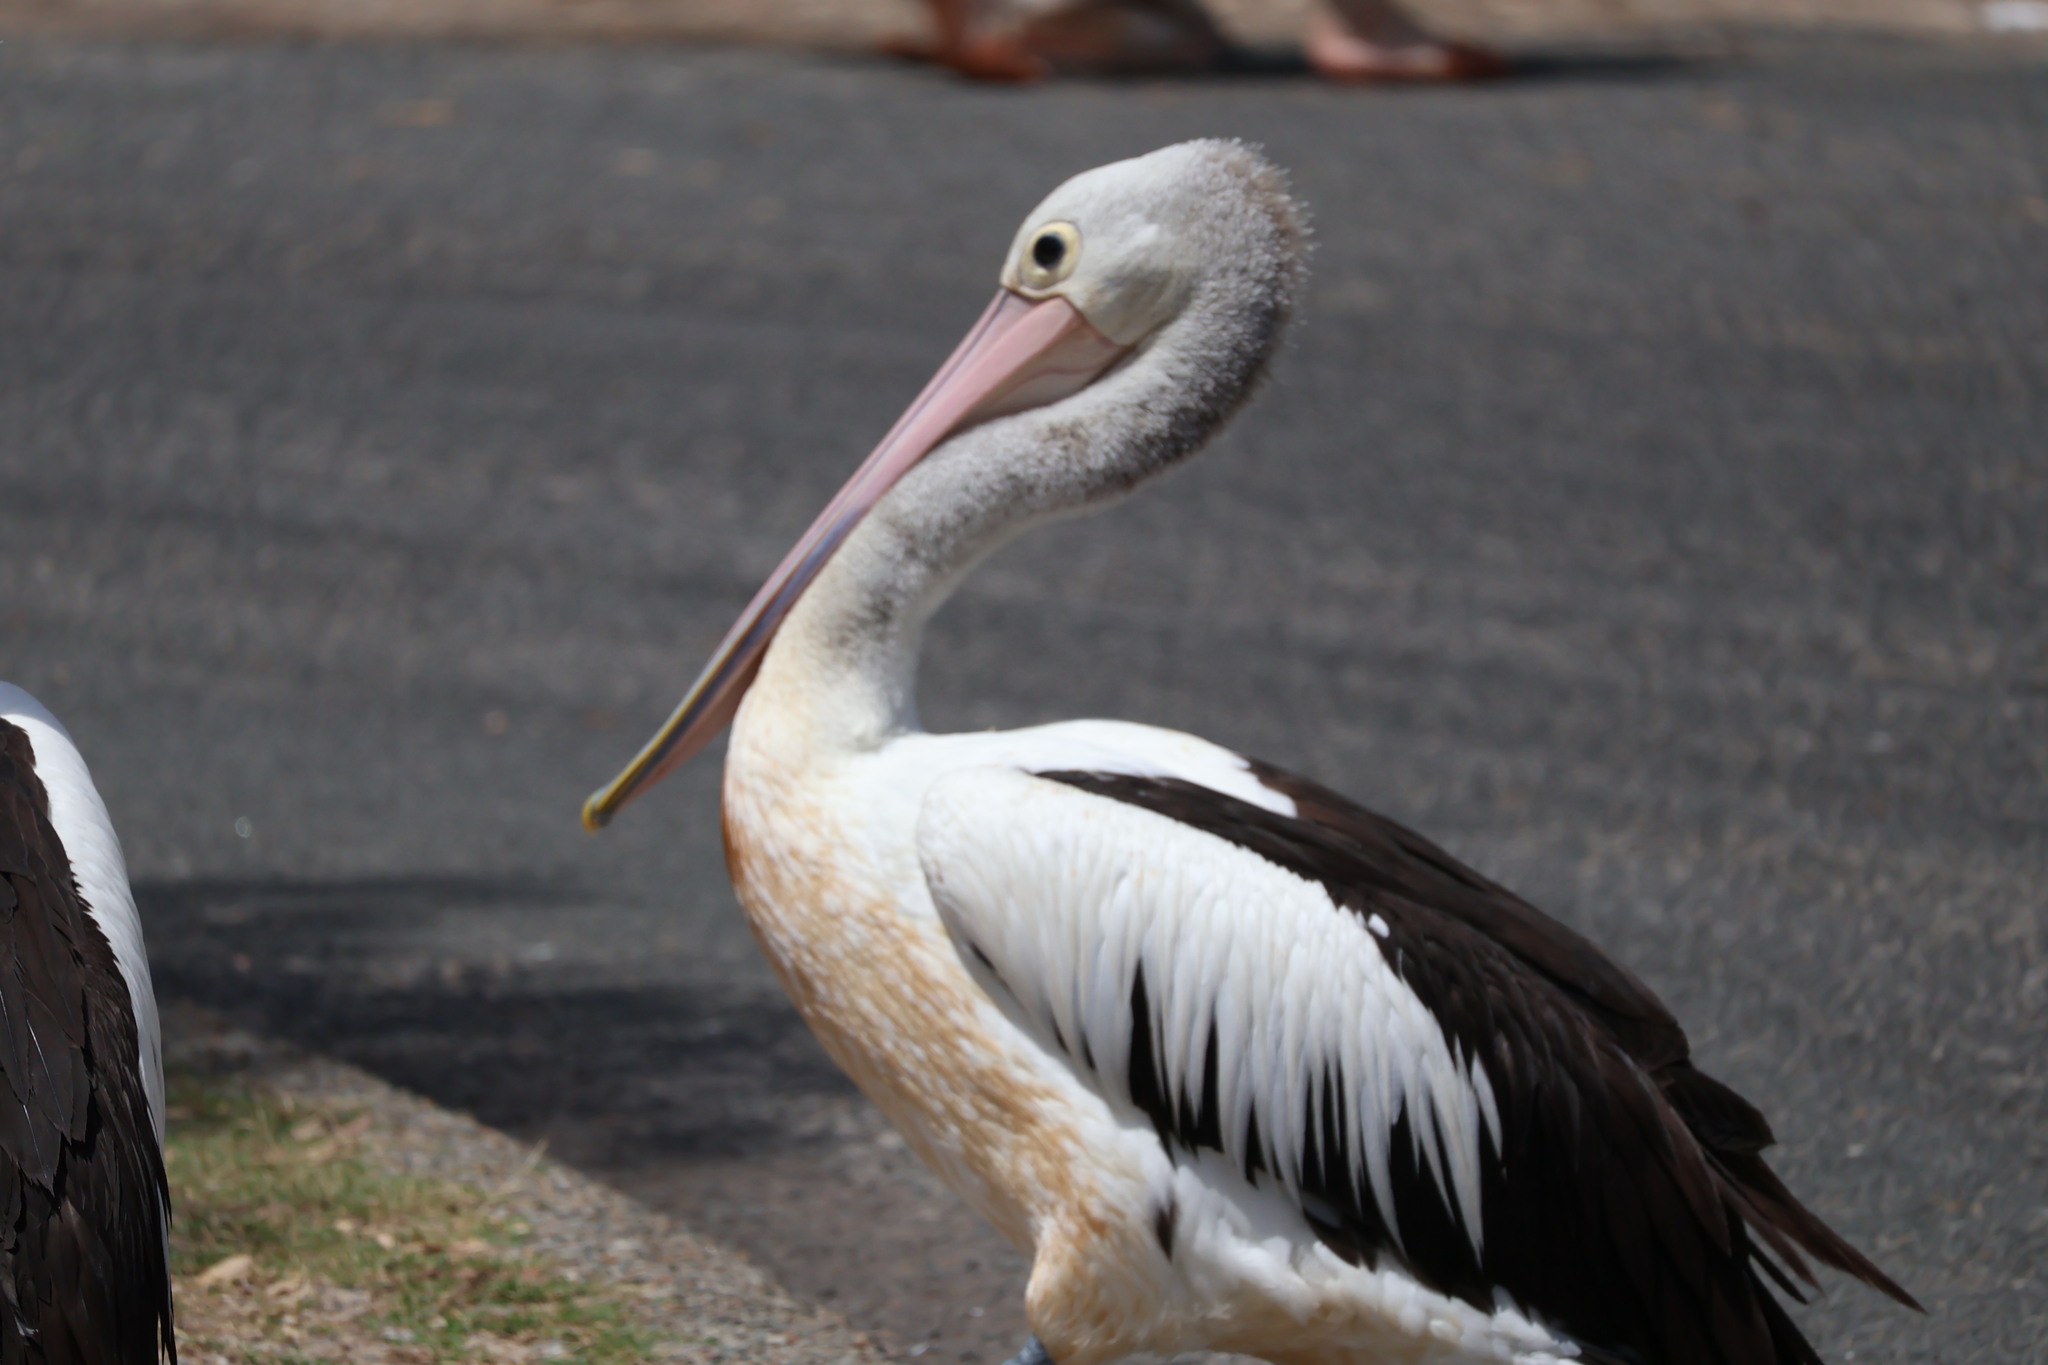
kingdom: Animalia
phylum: Chordata
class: Aves
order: Pelecaniformes
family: Pelecanidae
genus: Pelecanus
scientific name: Pelecanus conspicillatus
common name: Australian pelican
